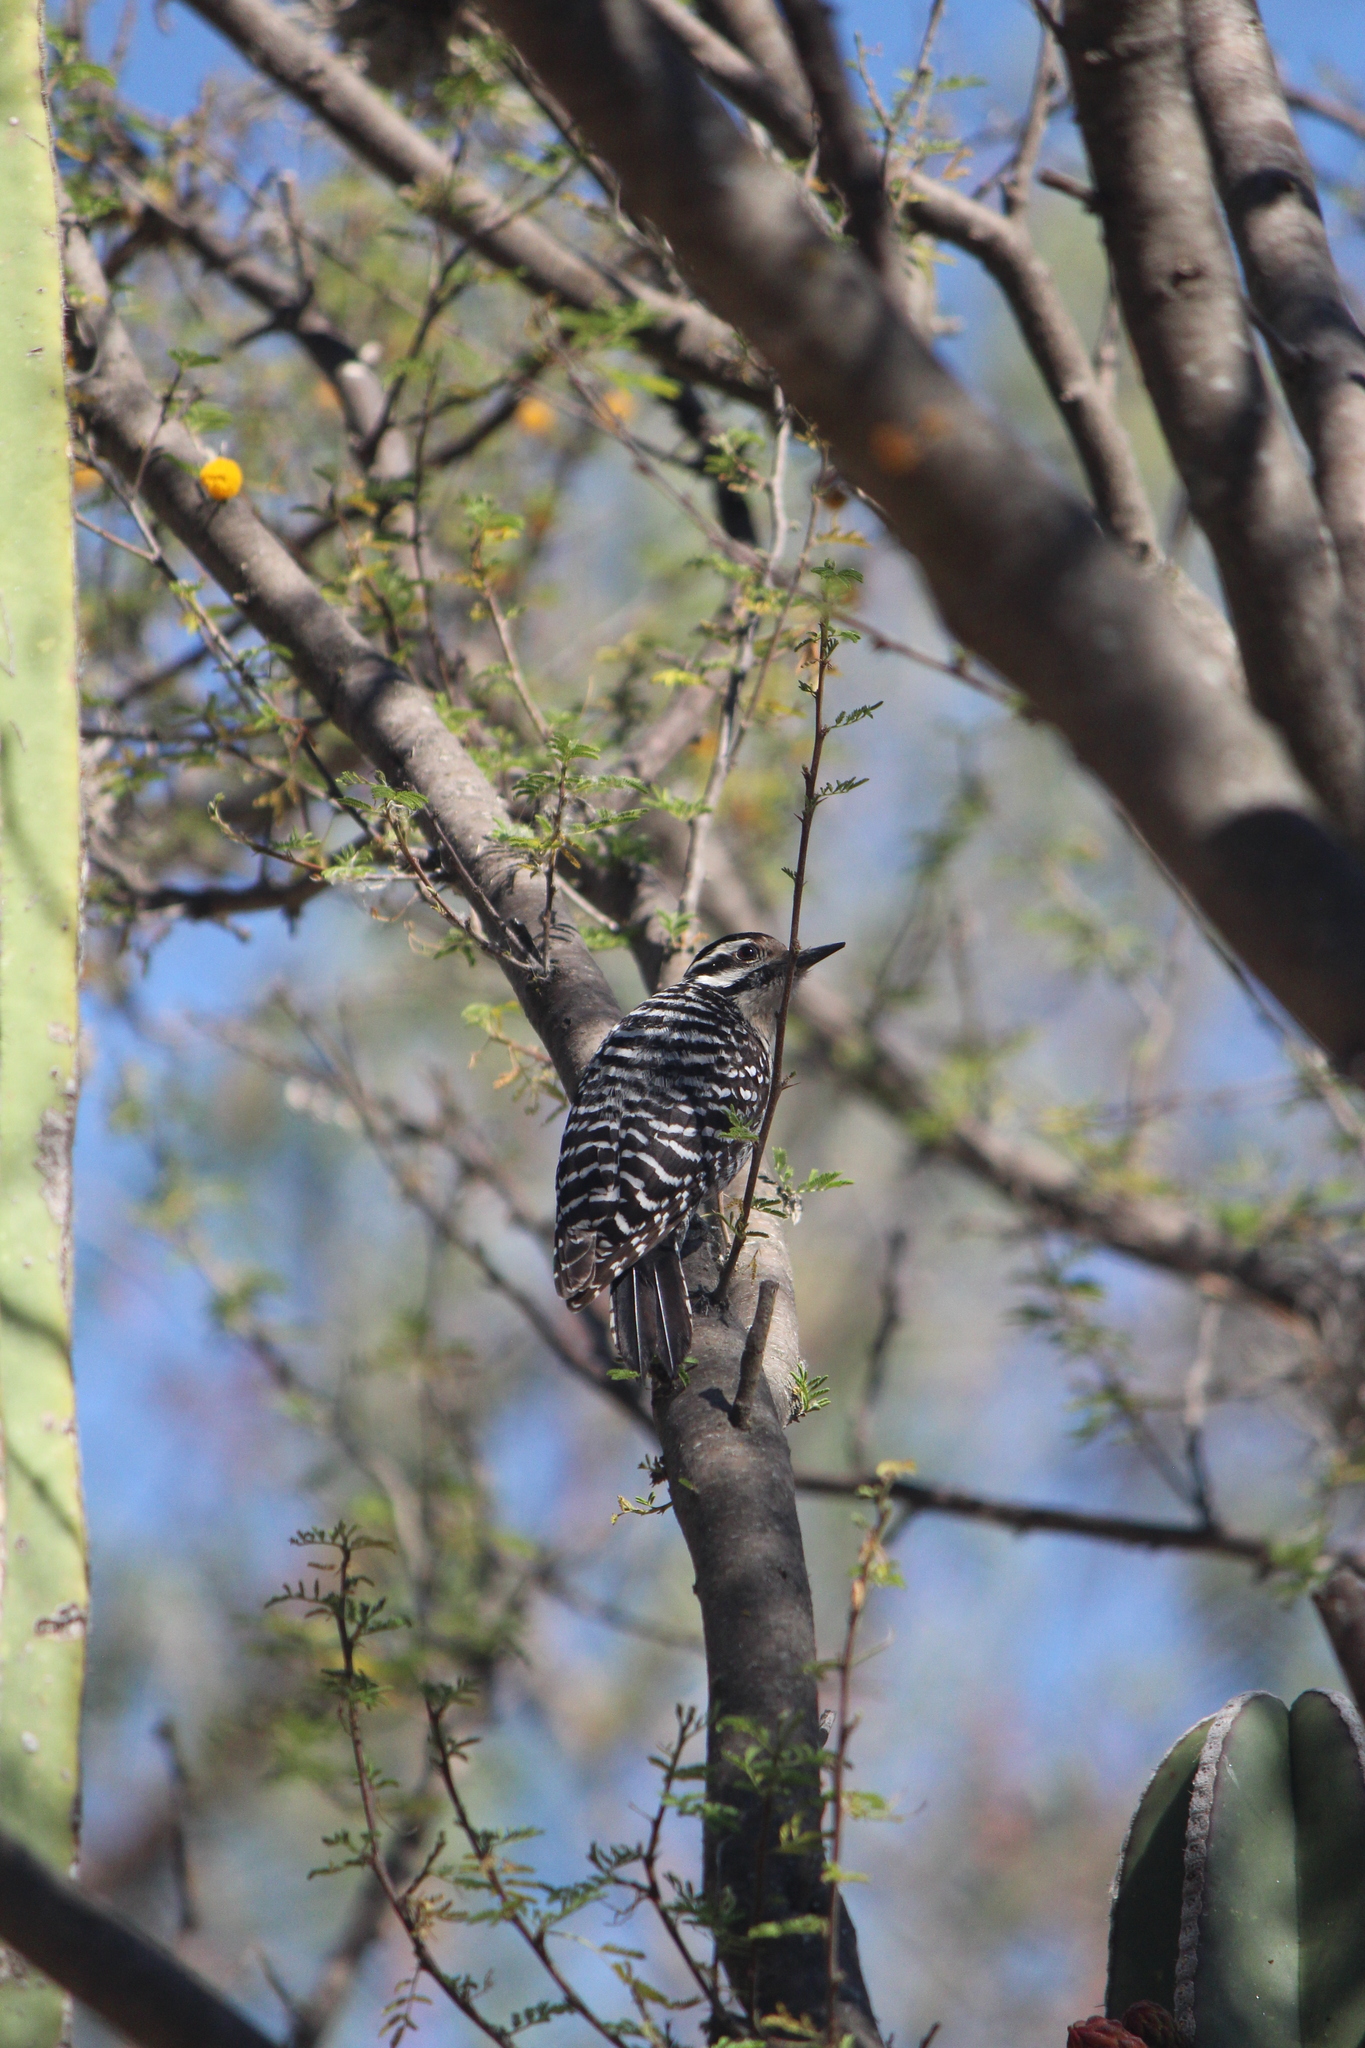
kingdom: Animalia
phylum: Chordata
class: Aves
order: Piciformes
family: Picidae
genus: Dryobates
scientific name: Dryobates scalaris
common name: Ladder-backed woodpecker
